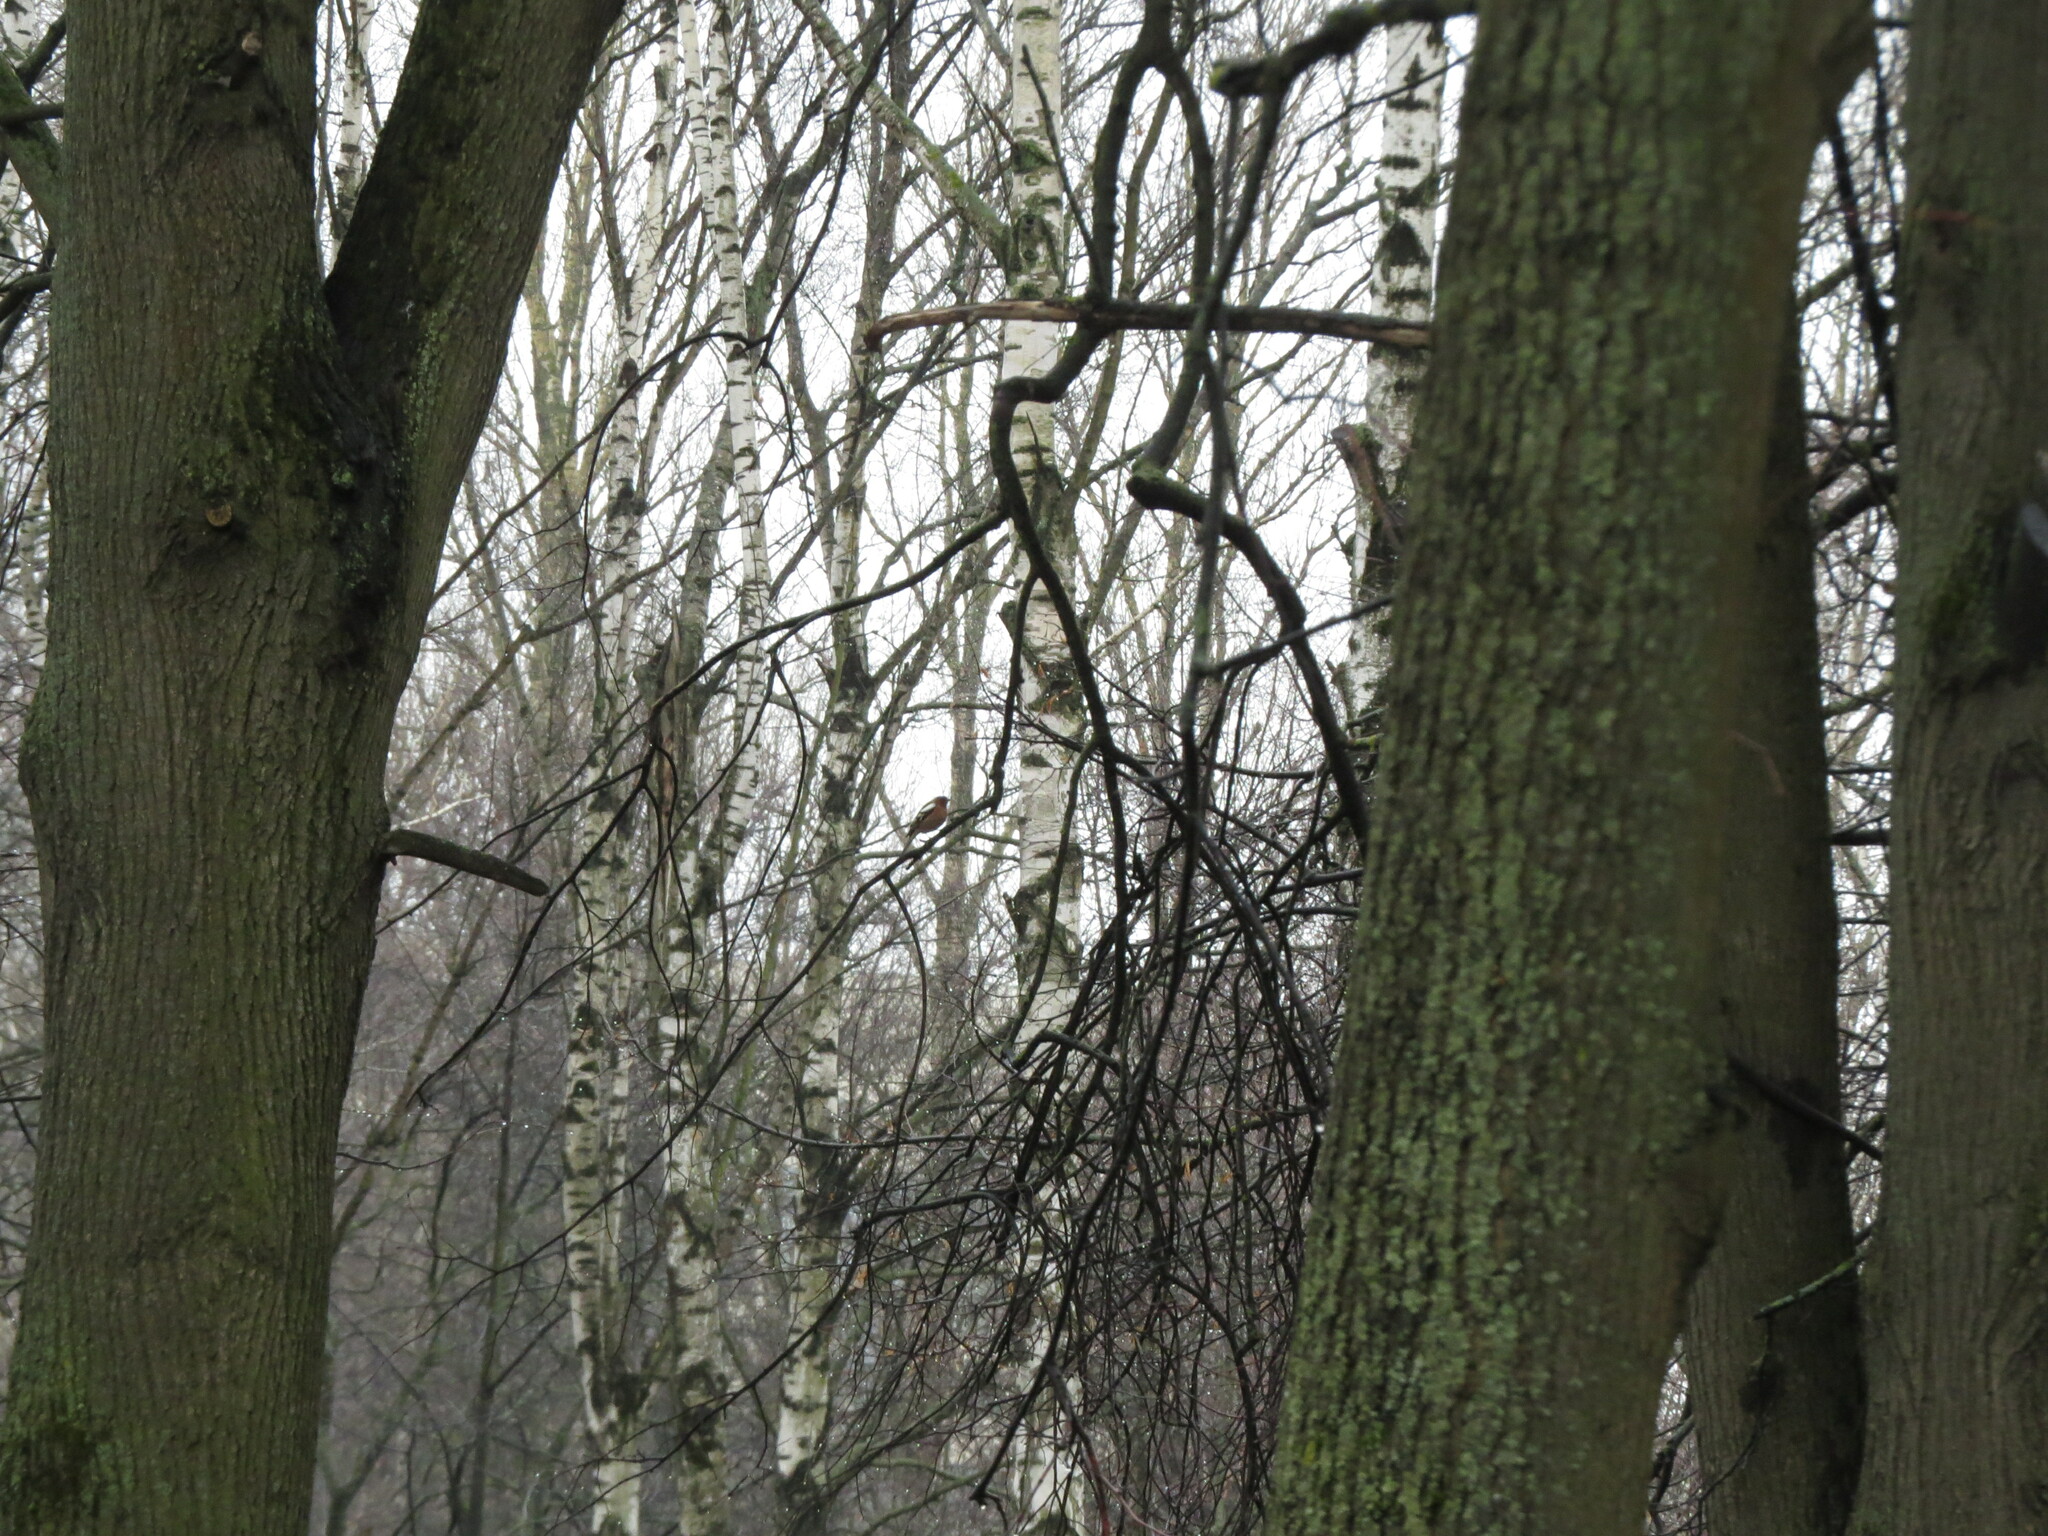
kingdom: Animalia
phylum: Chordata
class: Aves
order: Passeriformes
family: Fringillidae
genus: Fringilla
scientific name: Fringilla coelebs
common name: Common chaffinch
